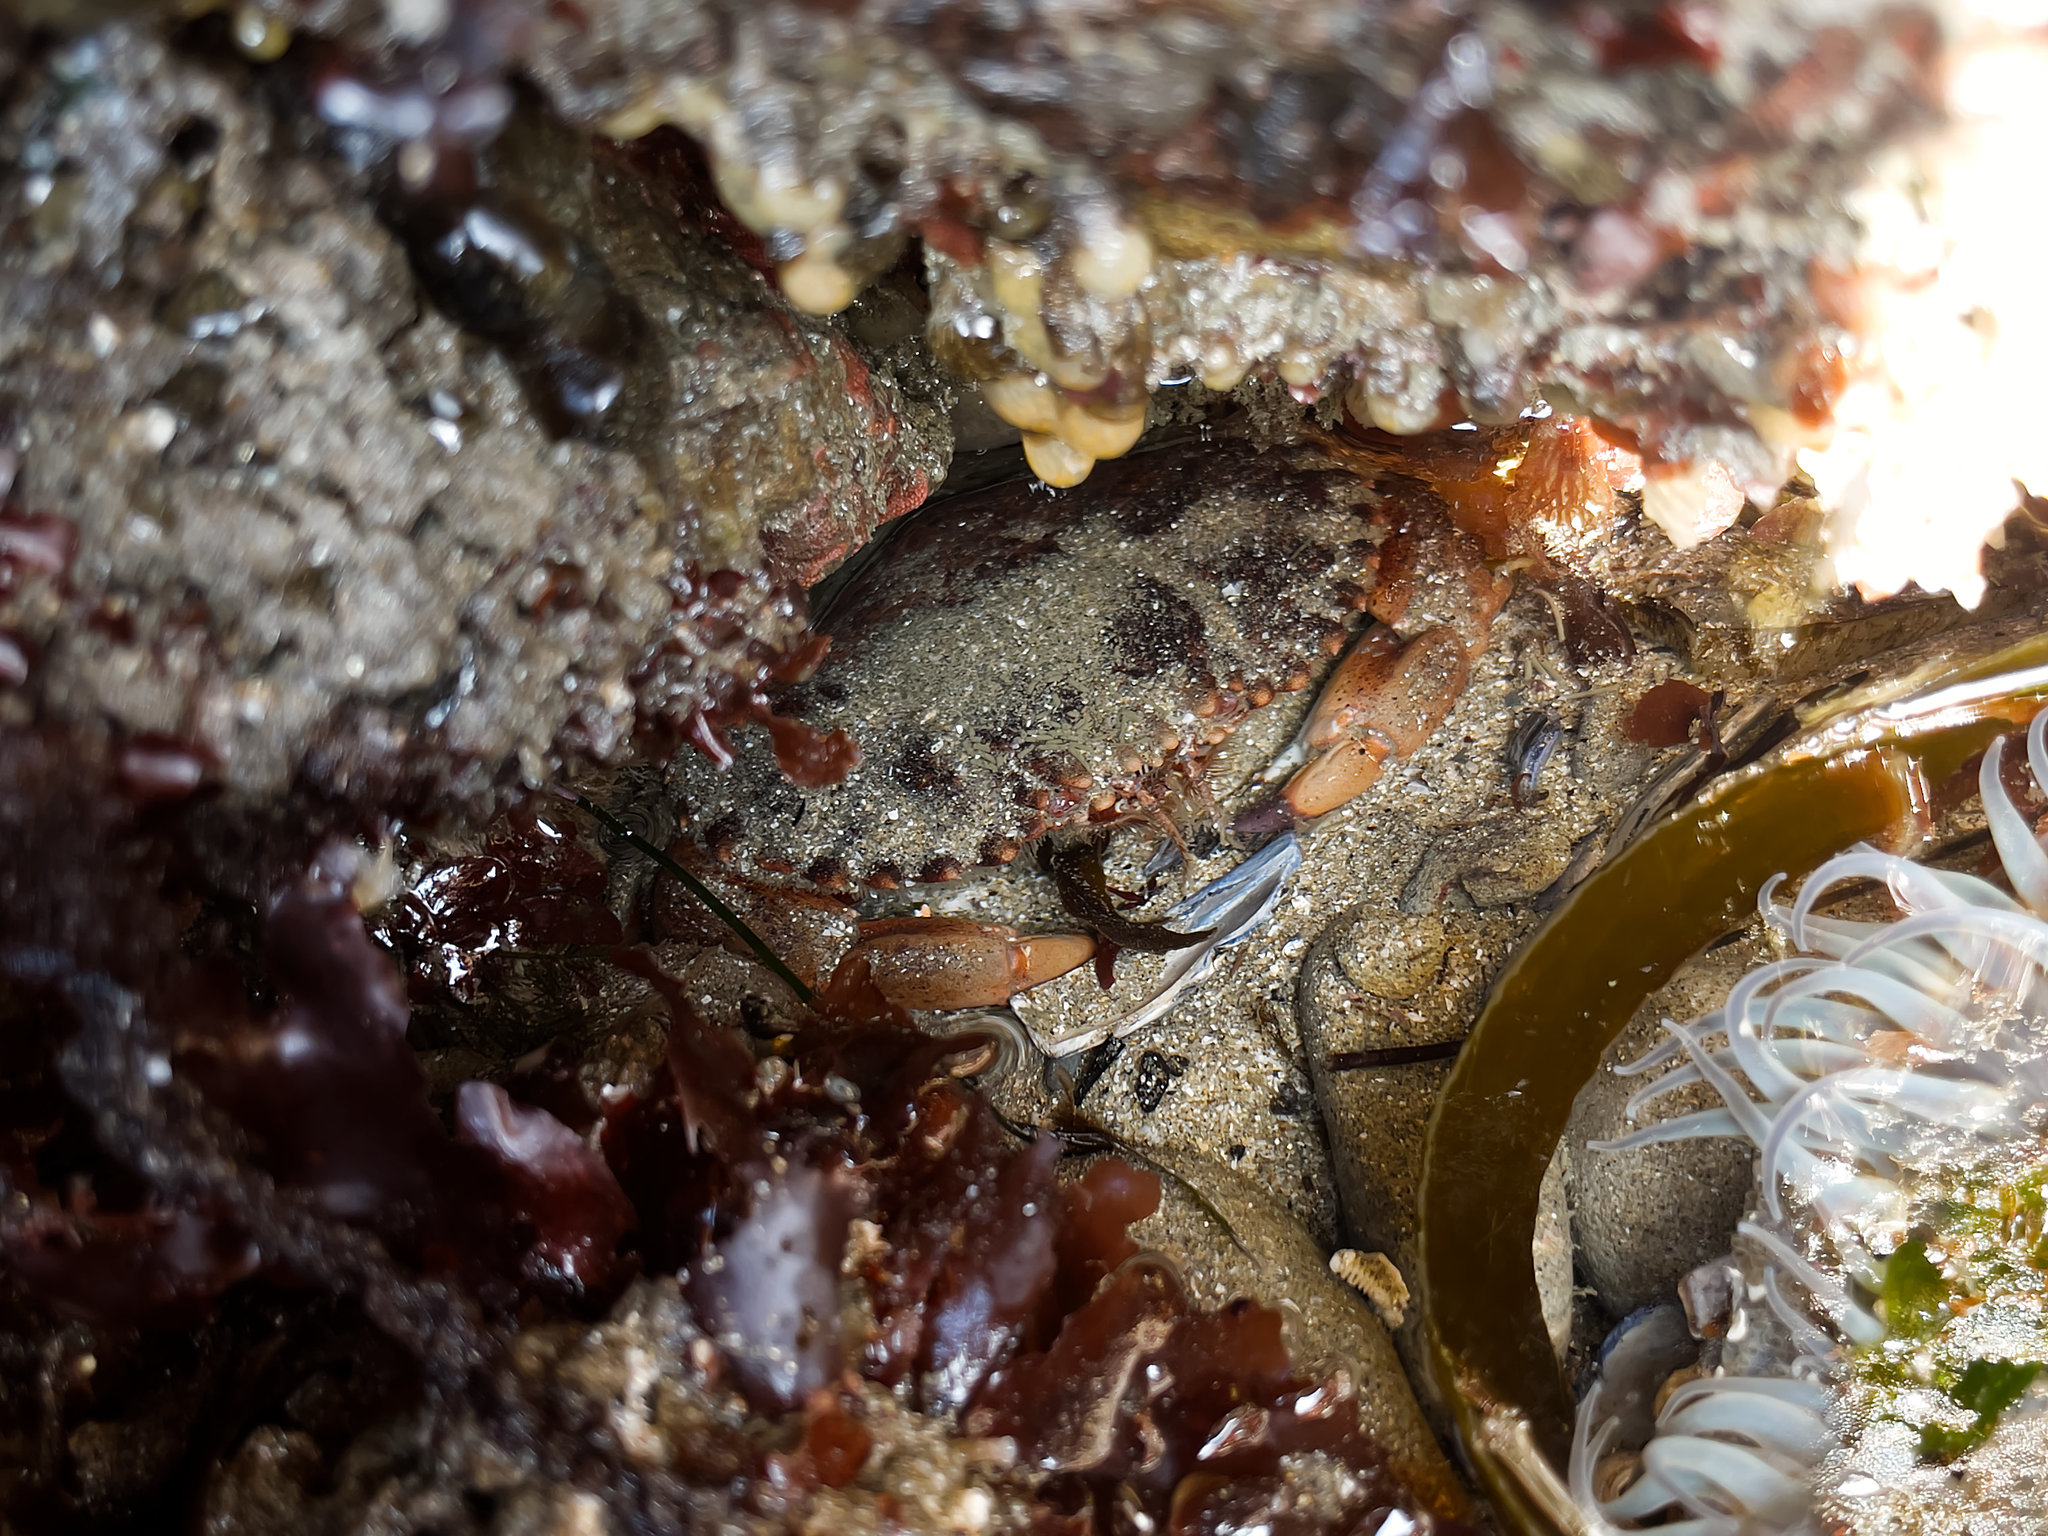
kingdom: Animalia
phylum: Arthropoda
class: Malacostraca
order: Decapoda
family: Cancridae
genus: Romaleon
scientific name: Romaleon antennarium
